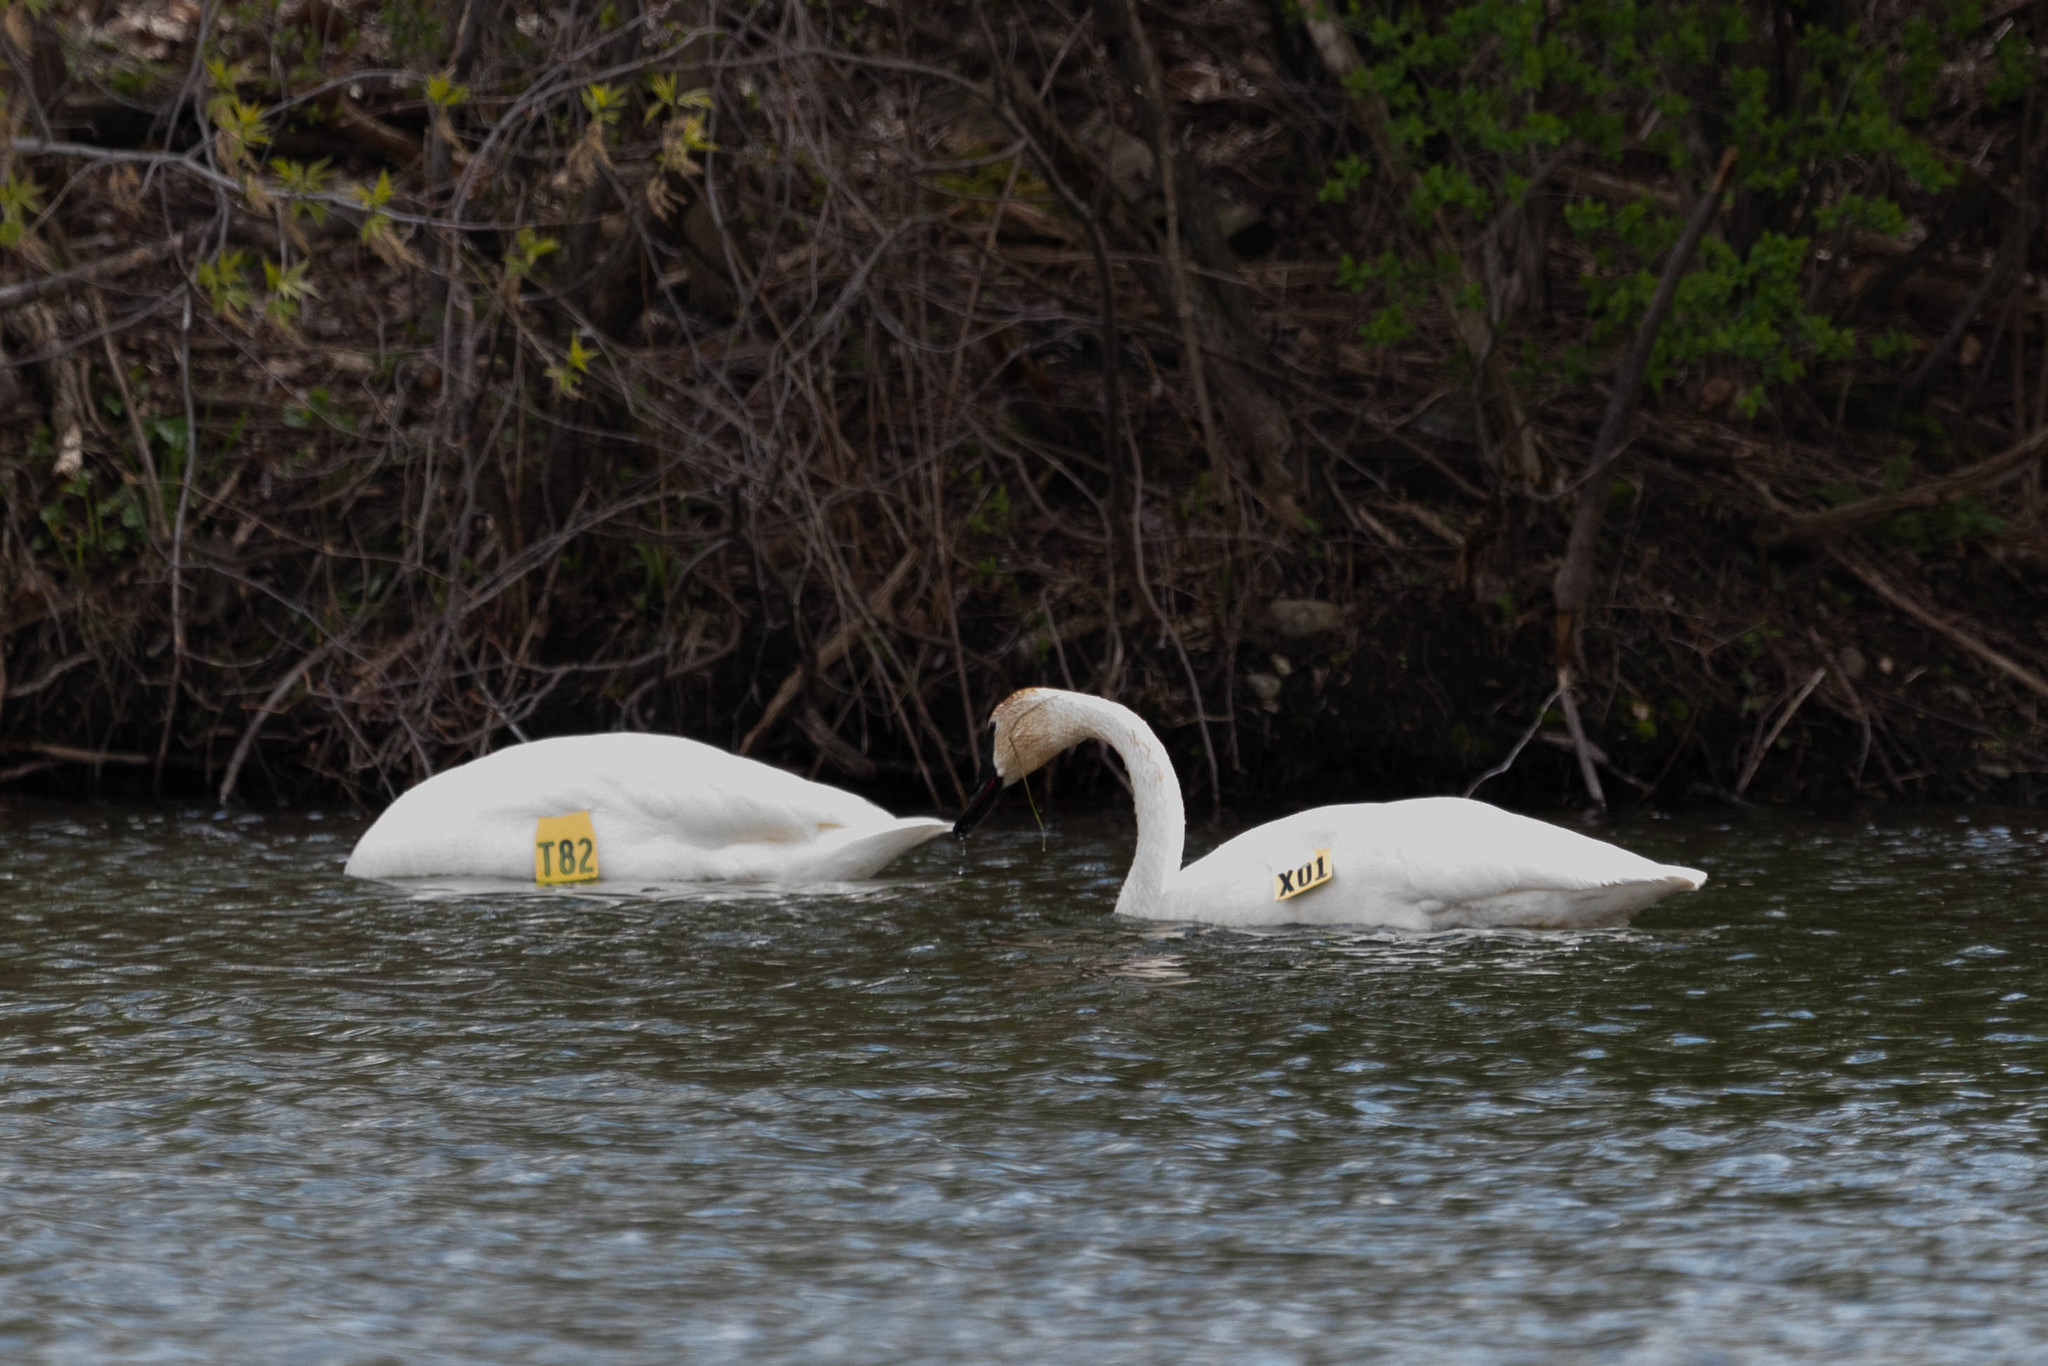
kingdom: Animalia
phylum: Chordata
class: Aves
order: Anseriformes
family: Anatidae
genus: Cygnus
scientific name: Cygnus buccinator
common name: Trumpeter swan
